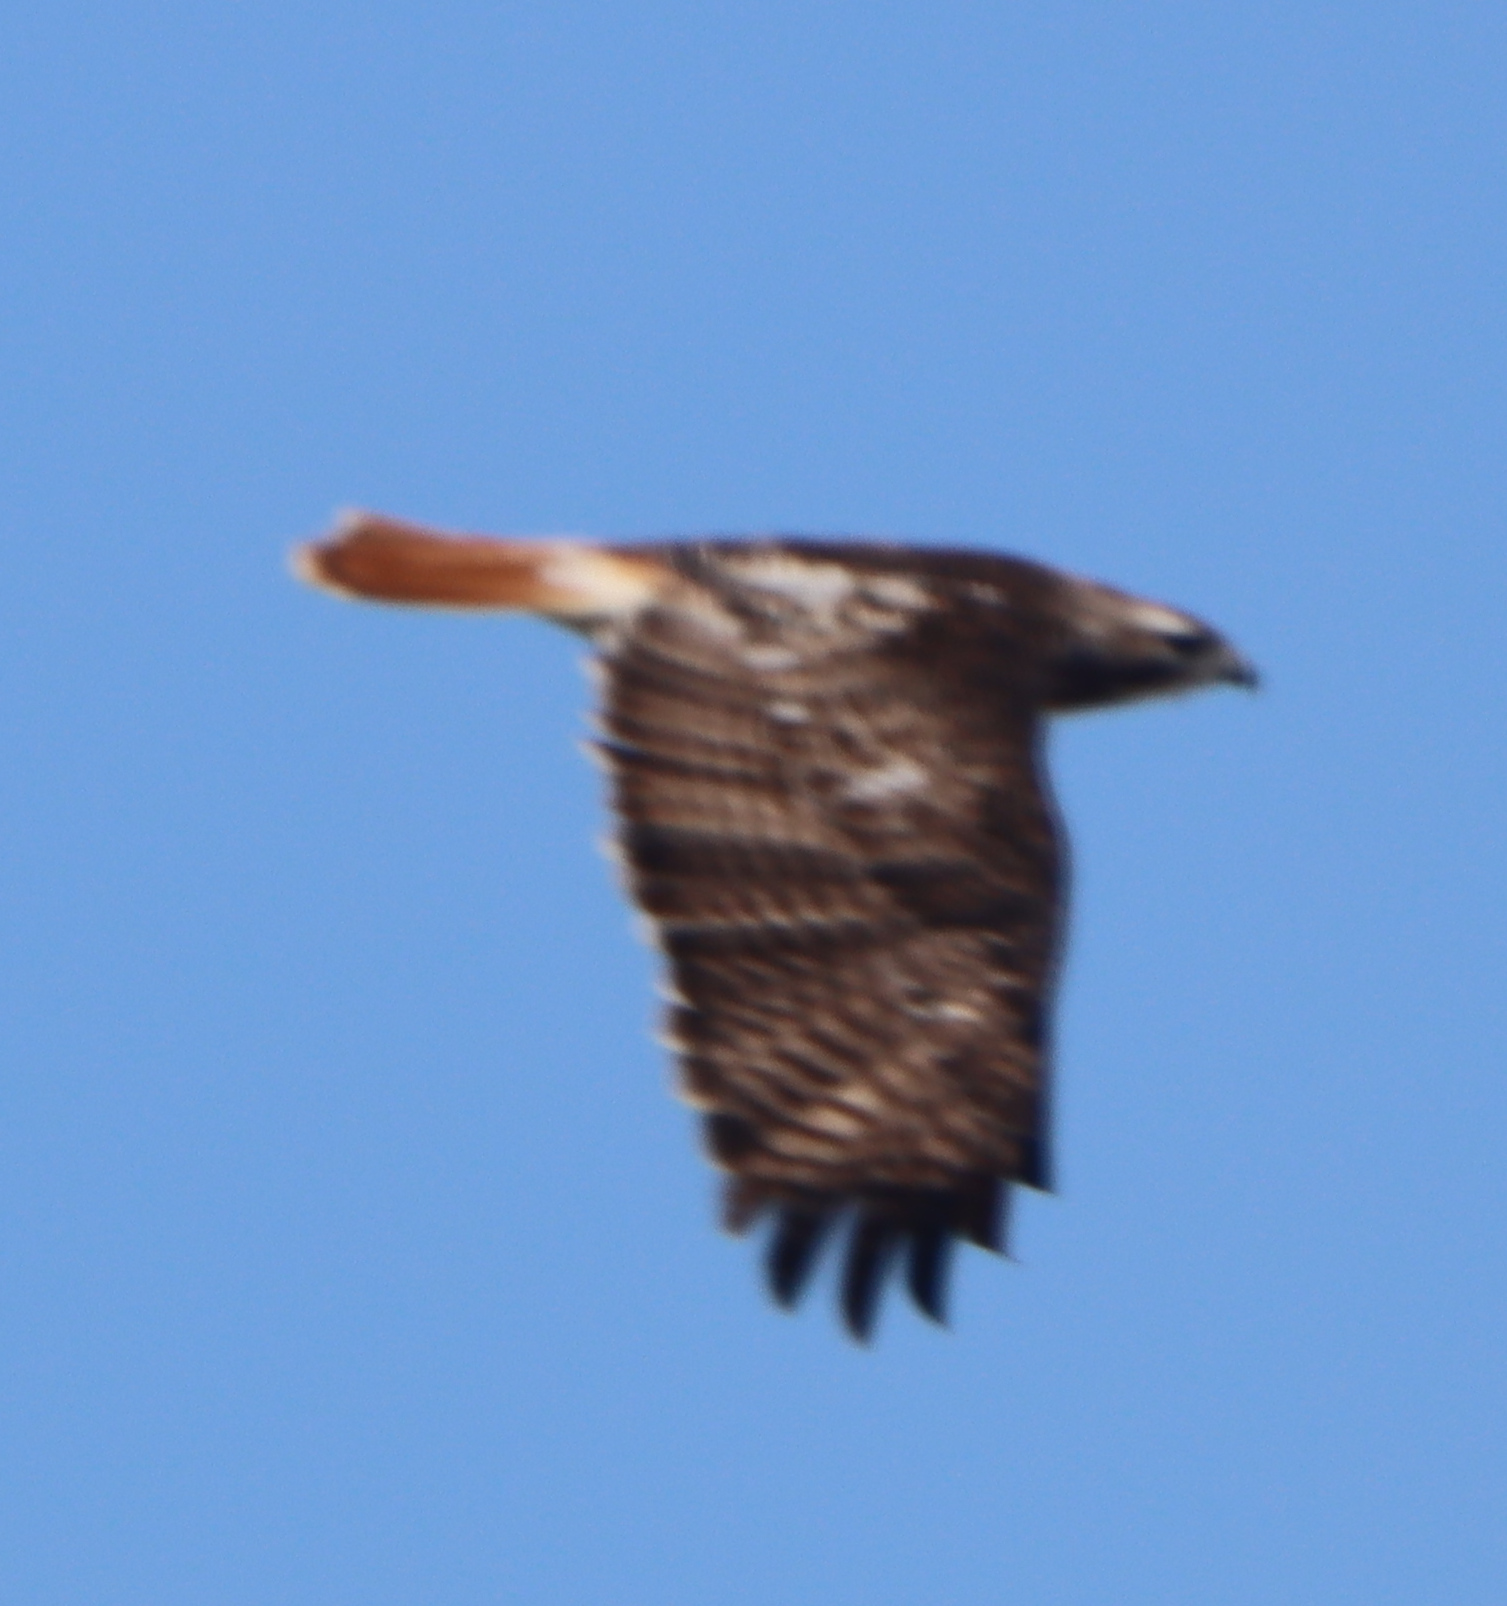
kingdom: Animalia
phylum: Chordata
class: Aves
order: Accipitriformes
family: Accipitridae
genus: Buteo
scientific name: Buteo jamaicensis
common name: Red-tailed hawk
